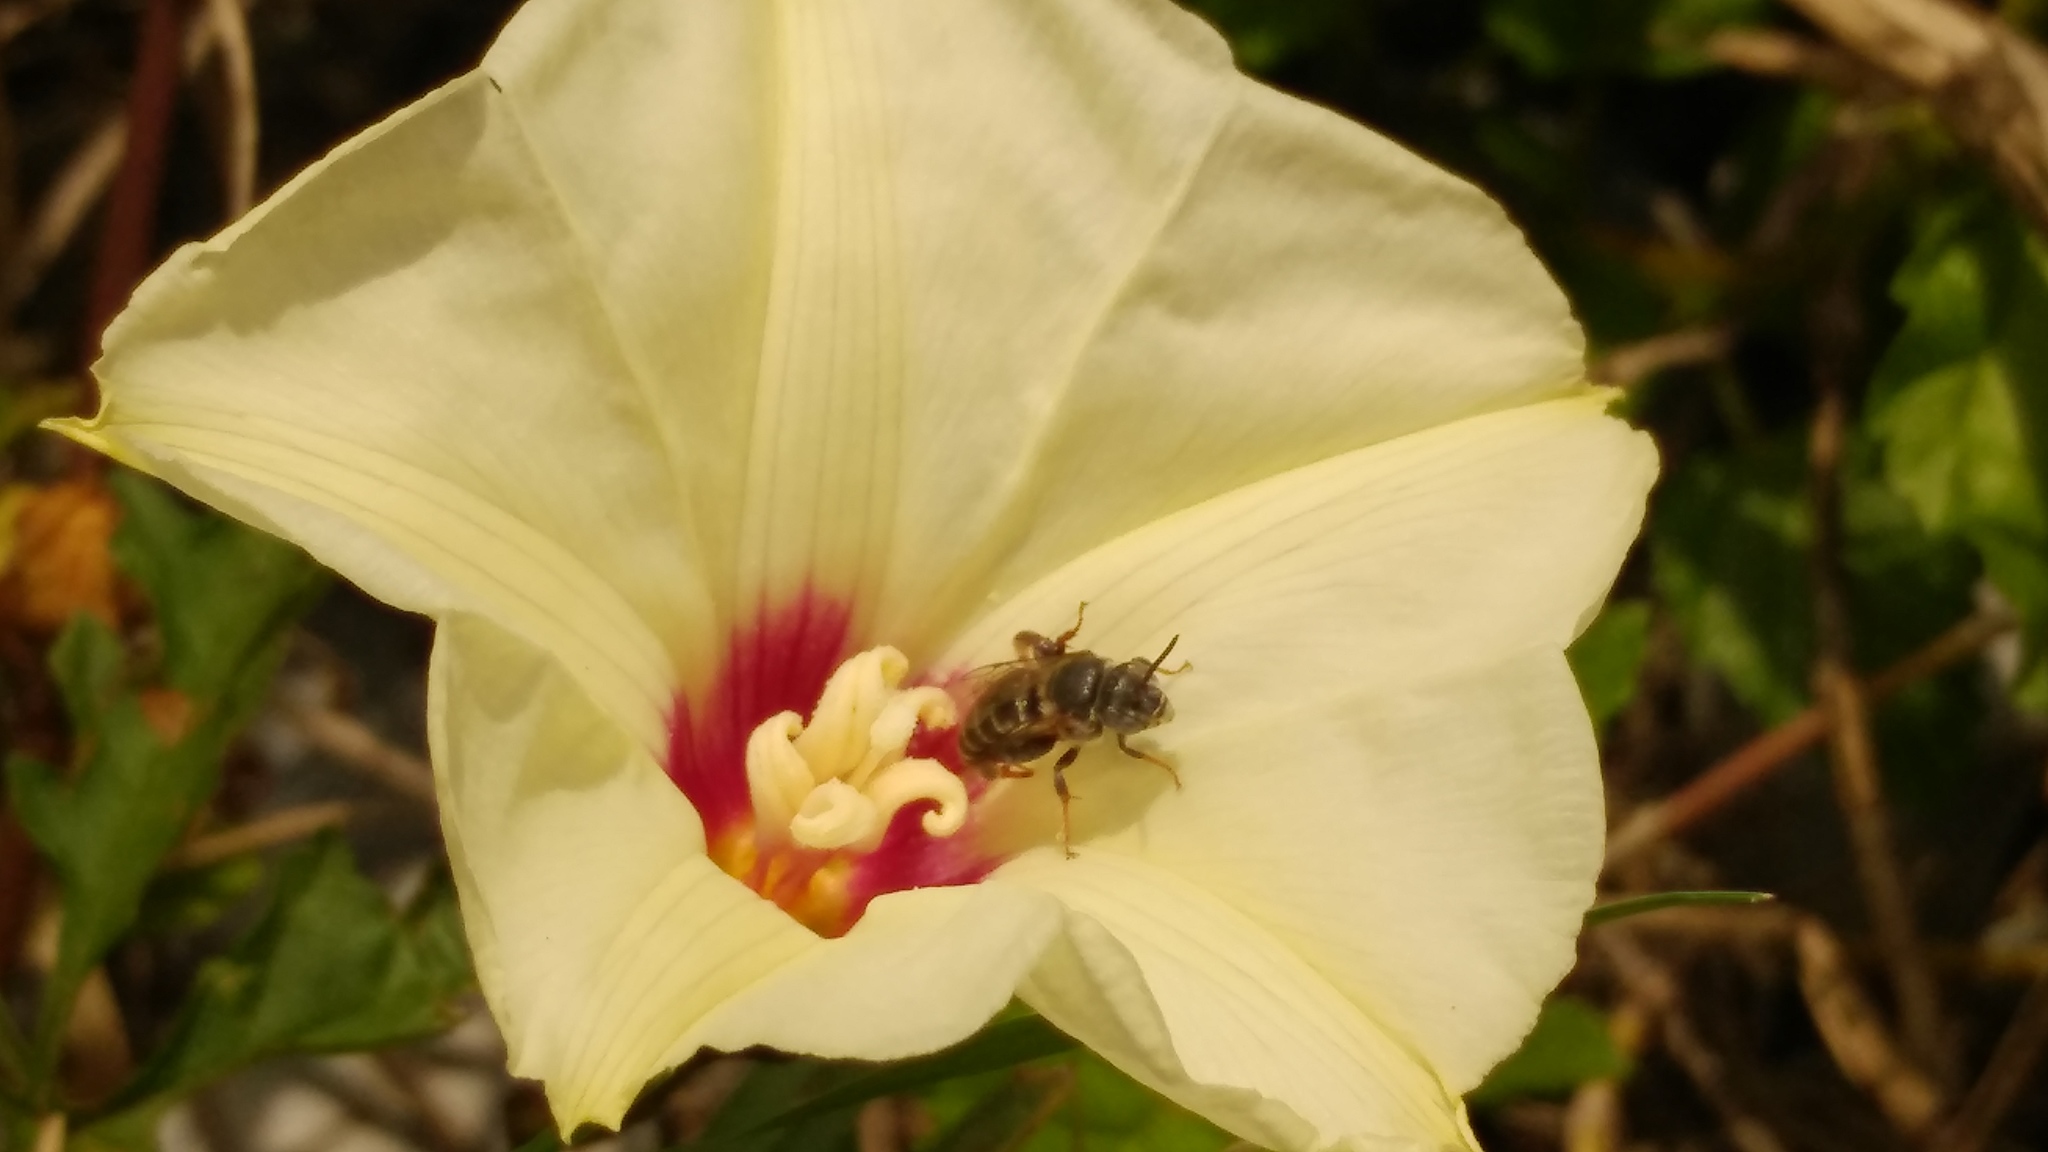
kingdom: Animalia
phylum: Arthropoda
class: Insecta
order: Hymenoptera
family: Apidae
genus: Ancyloscelis
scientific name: Ancyloscelis apiformis
